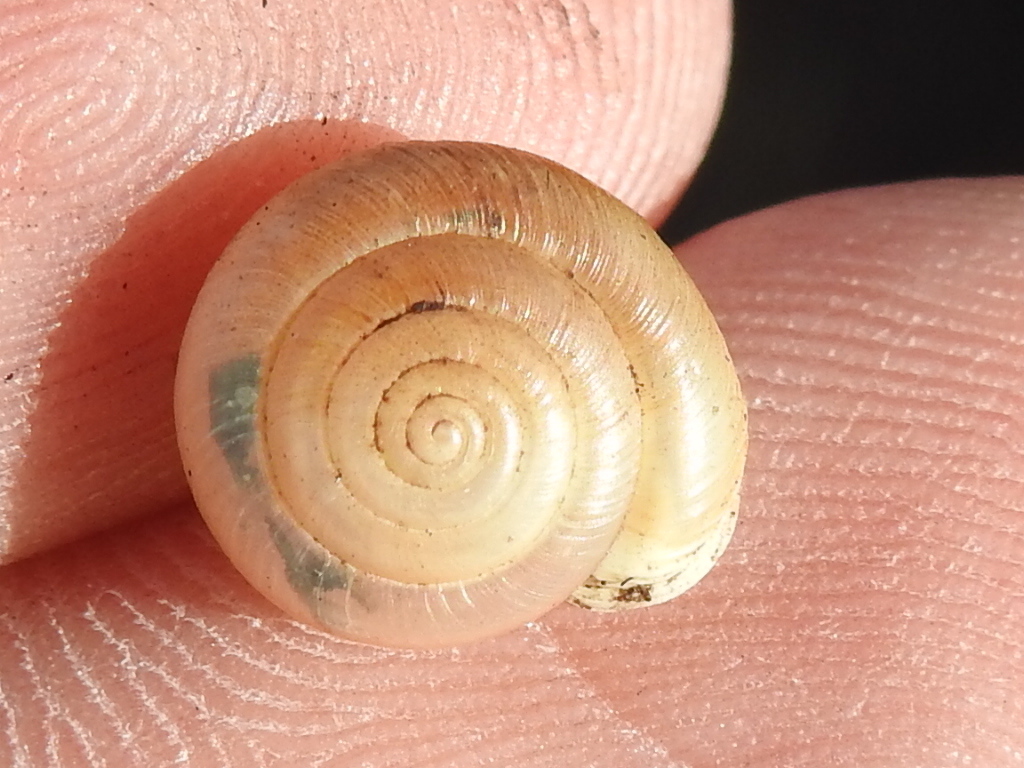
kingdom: Animalia
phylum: Mollusca
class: Gastropoda
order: Stylommatophora
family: Polygyridae
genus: Linisa
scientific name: Linisa texasiana
